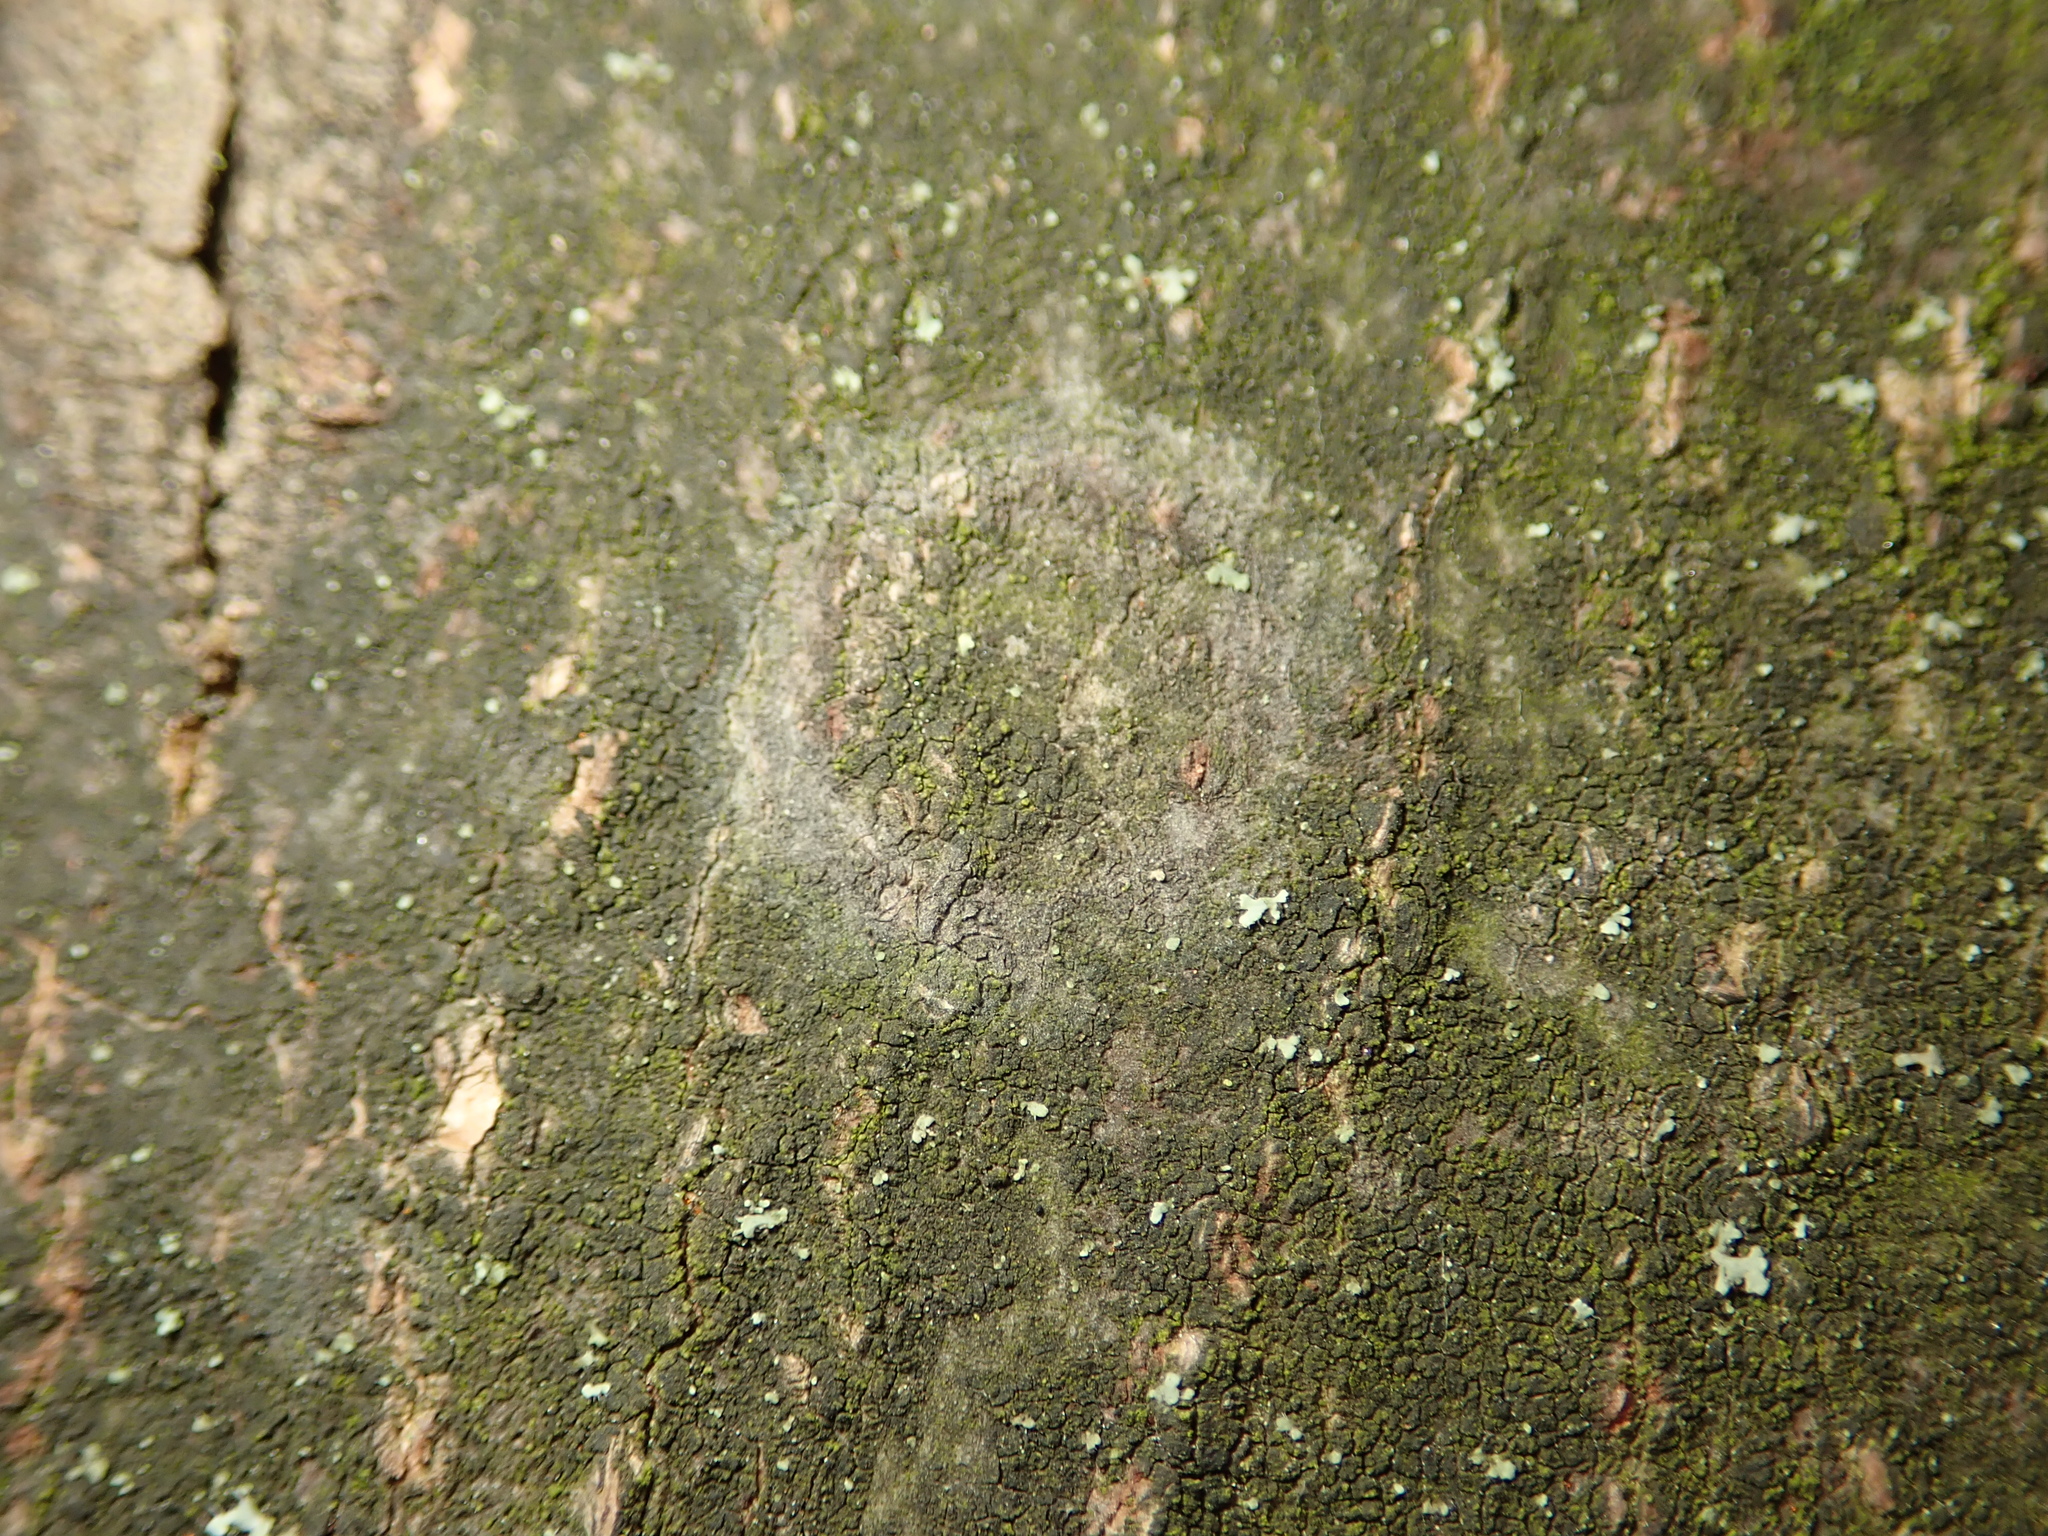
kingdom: Fungi
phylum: Basidiomycota
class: Agaricomycetes
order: Atheliales
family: Atheliaceae
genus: Athelia
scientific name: Athelia arachnoidea
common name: Candelabra duster
